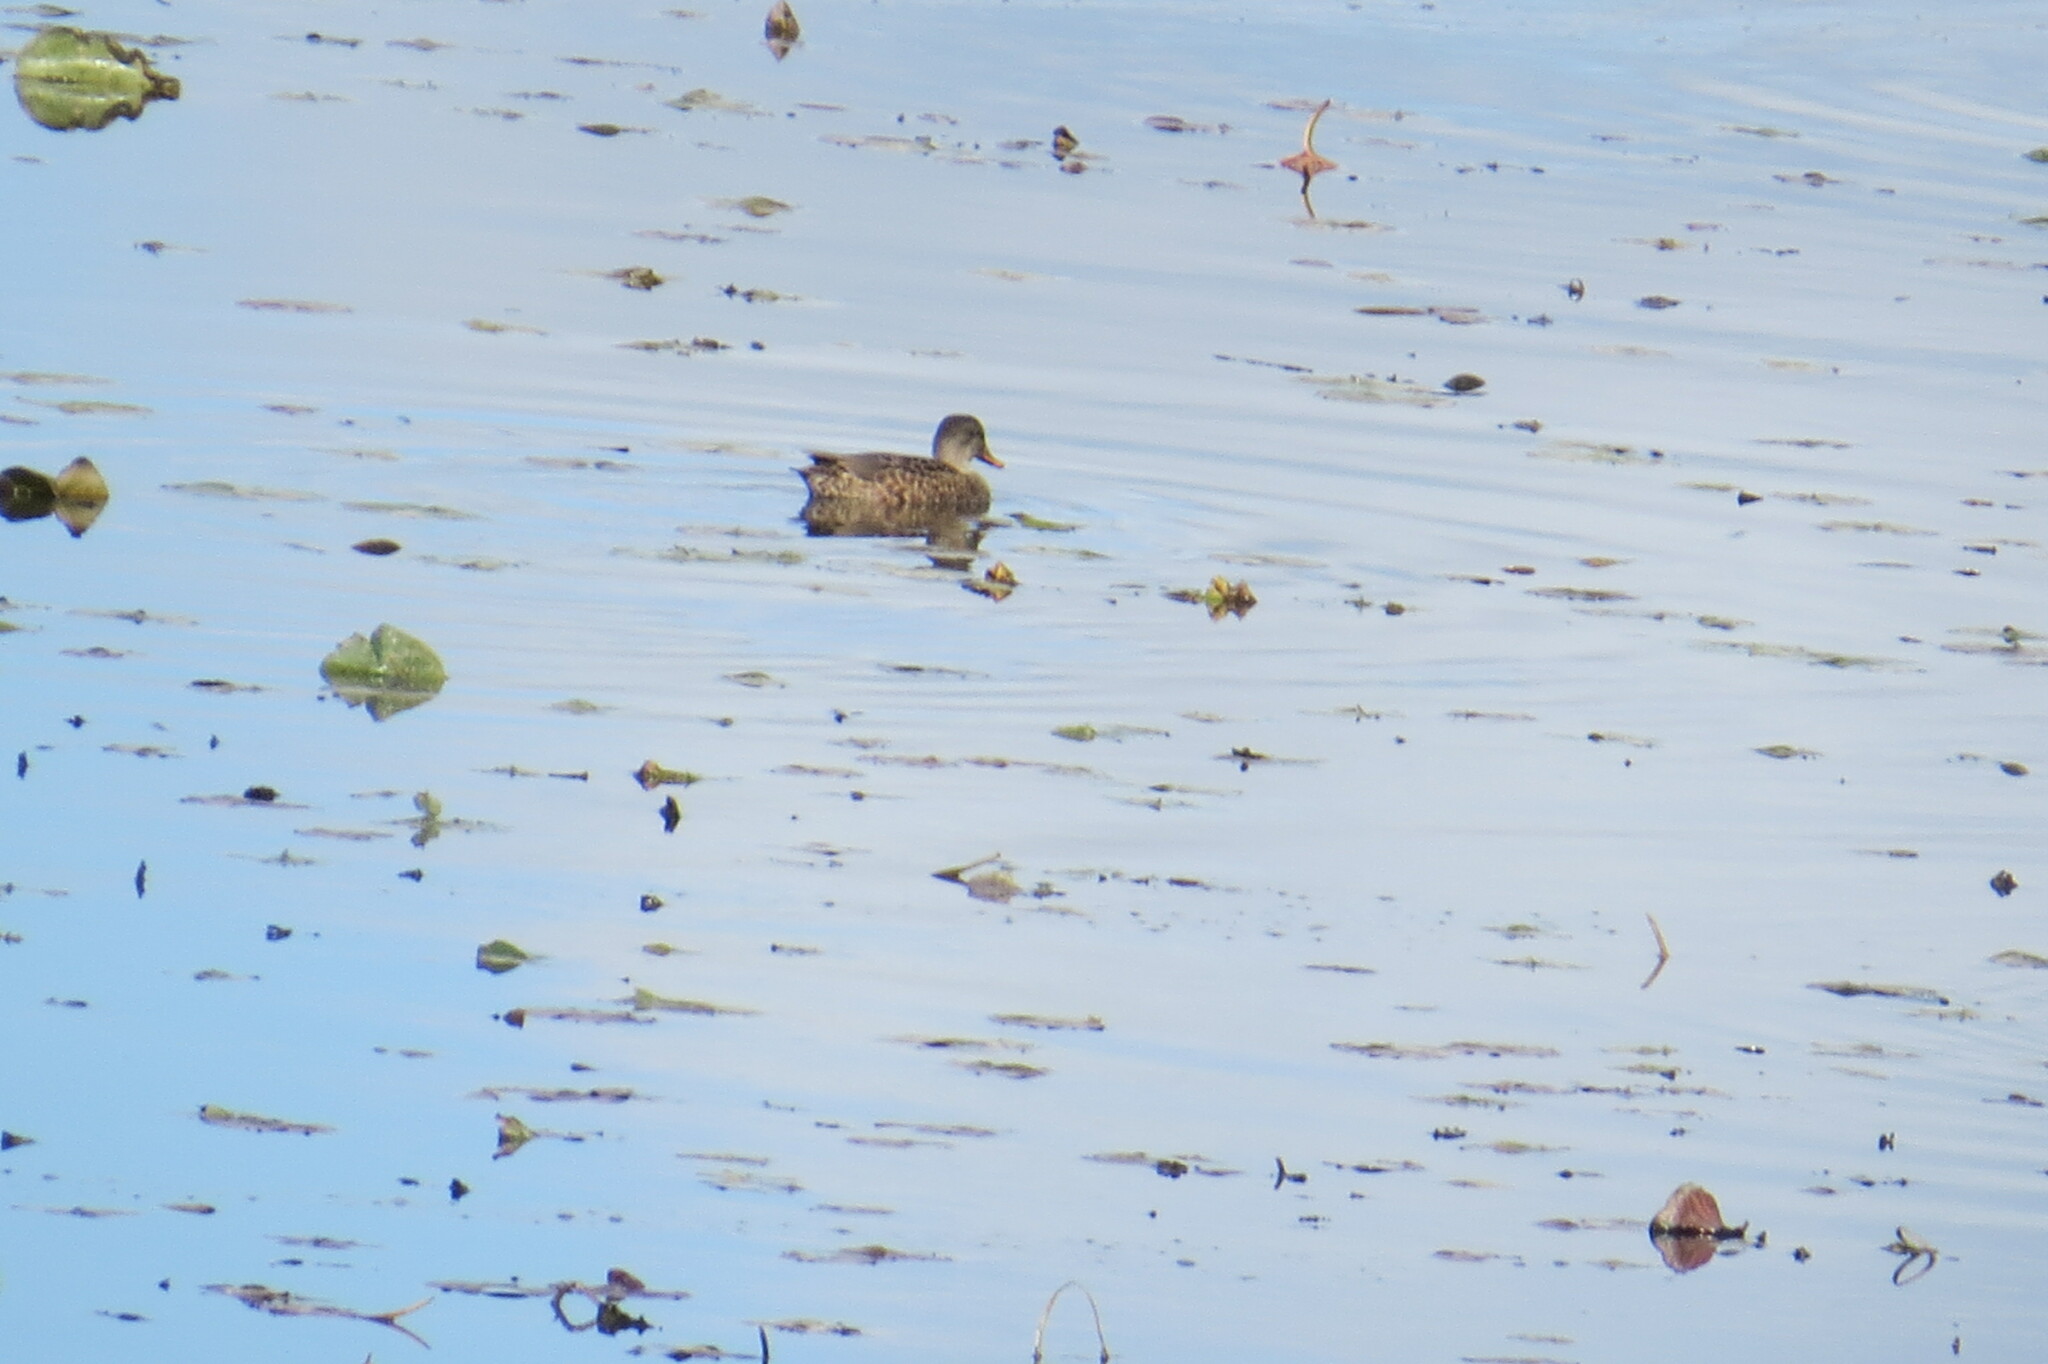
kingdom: Animalia
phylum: Chordata
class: Aves
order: Anseriformes
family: Anatidae
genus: Mareca
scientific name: Mareca strepera
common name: Gadwall
